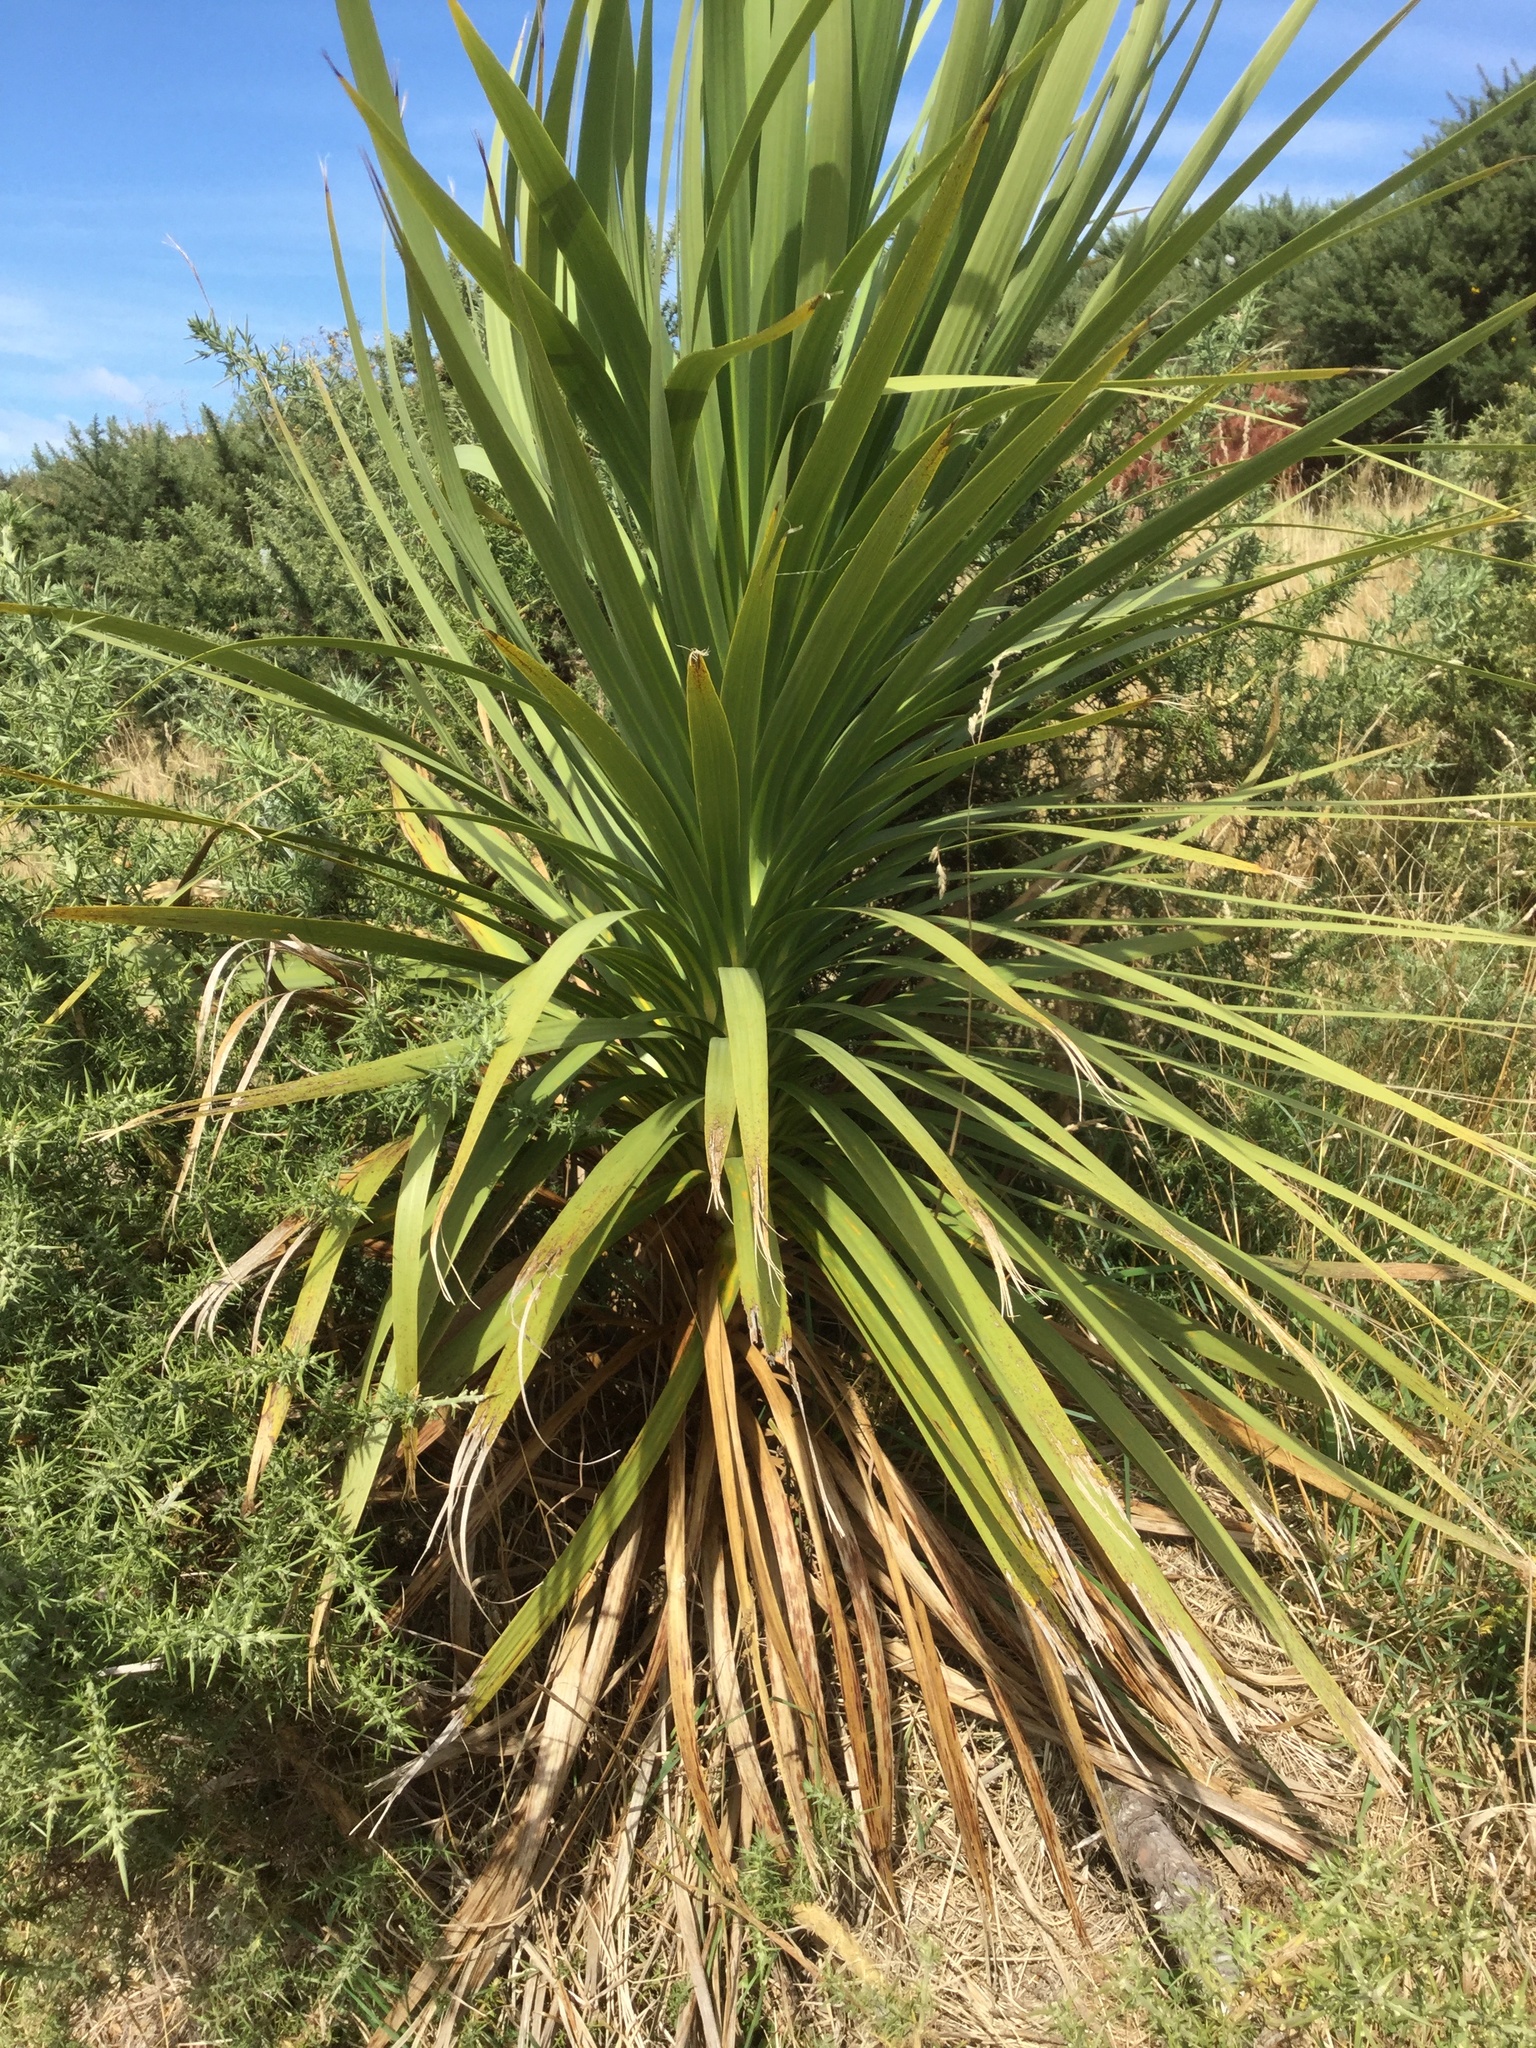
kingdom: Plantae
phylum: Tracheophyta
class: Liliopsida
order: Asparagales
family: Asparagaceae
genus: Cordyline
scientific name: Cordyline australis
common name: Cabbage-palm
